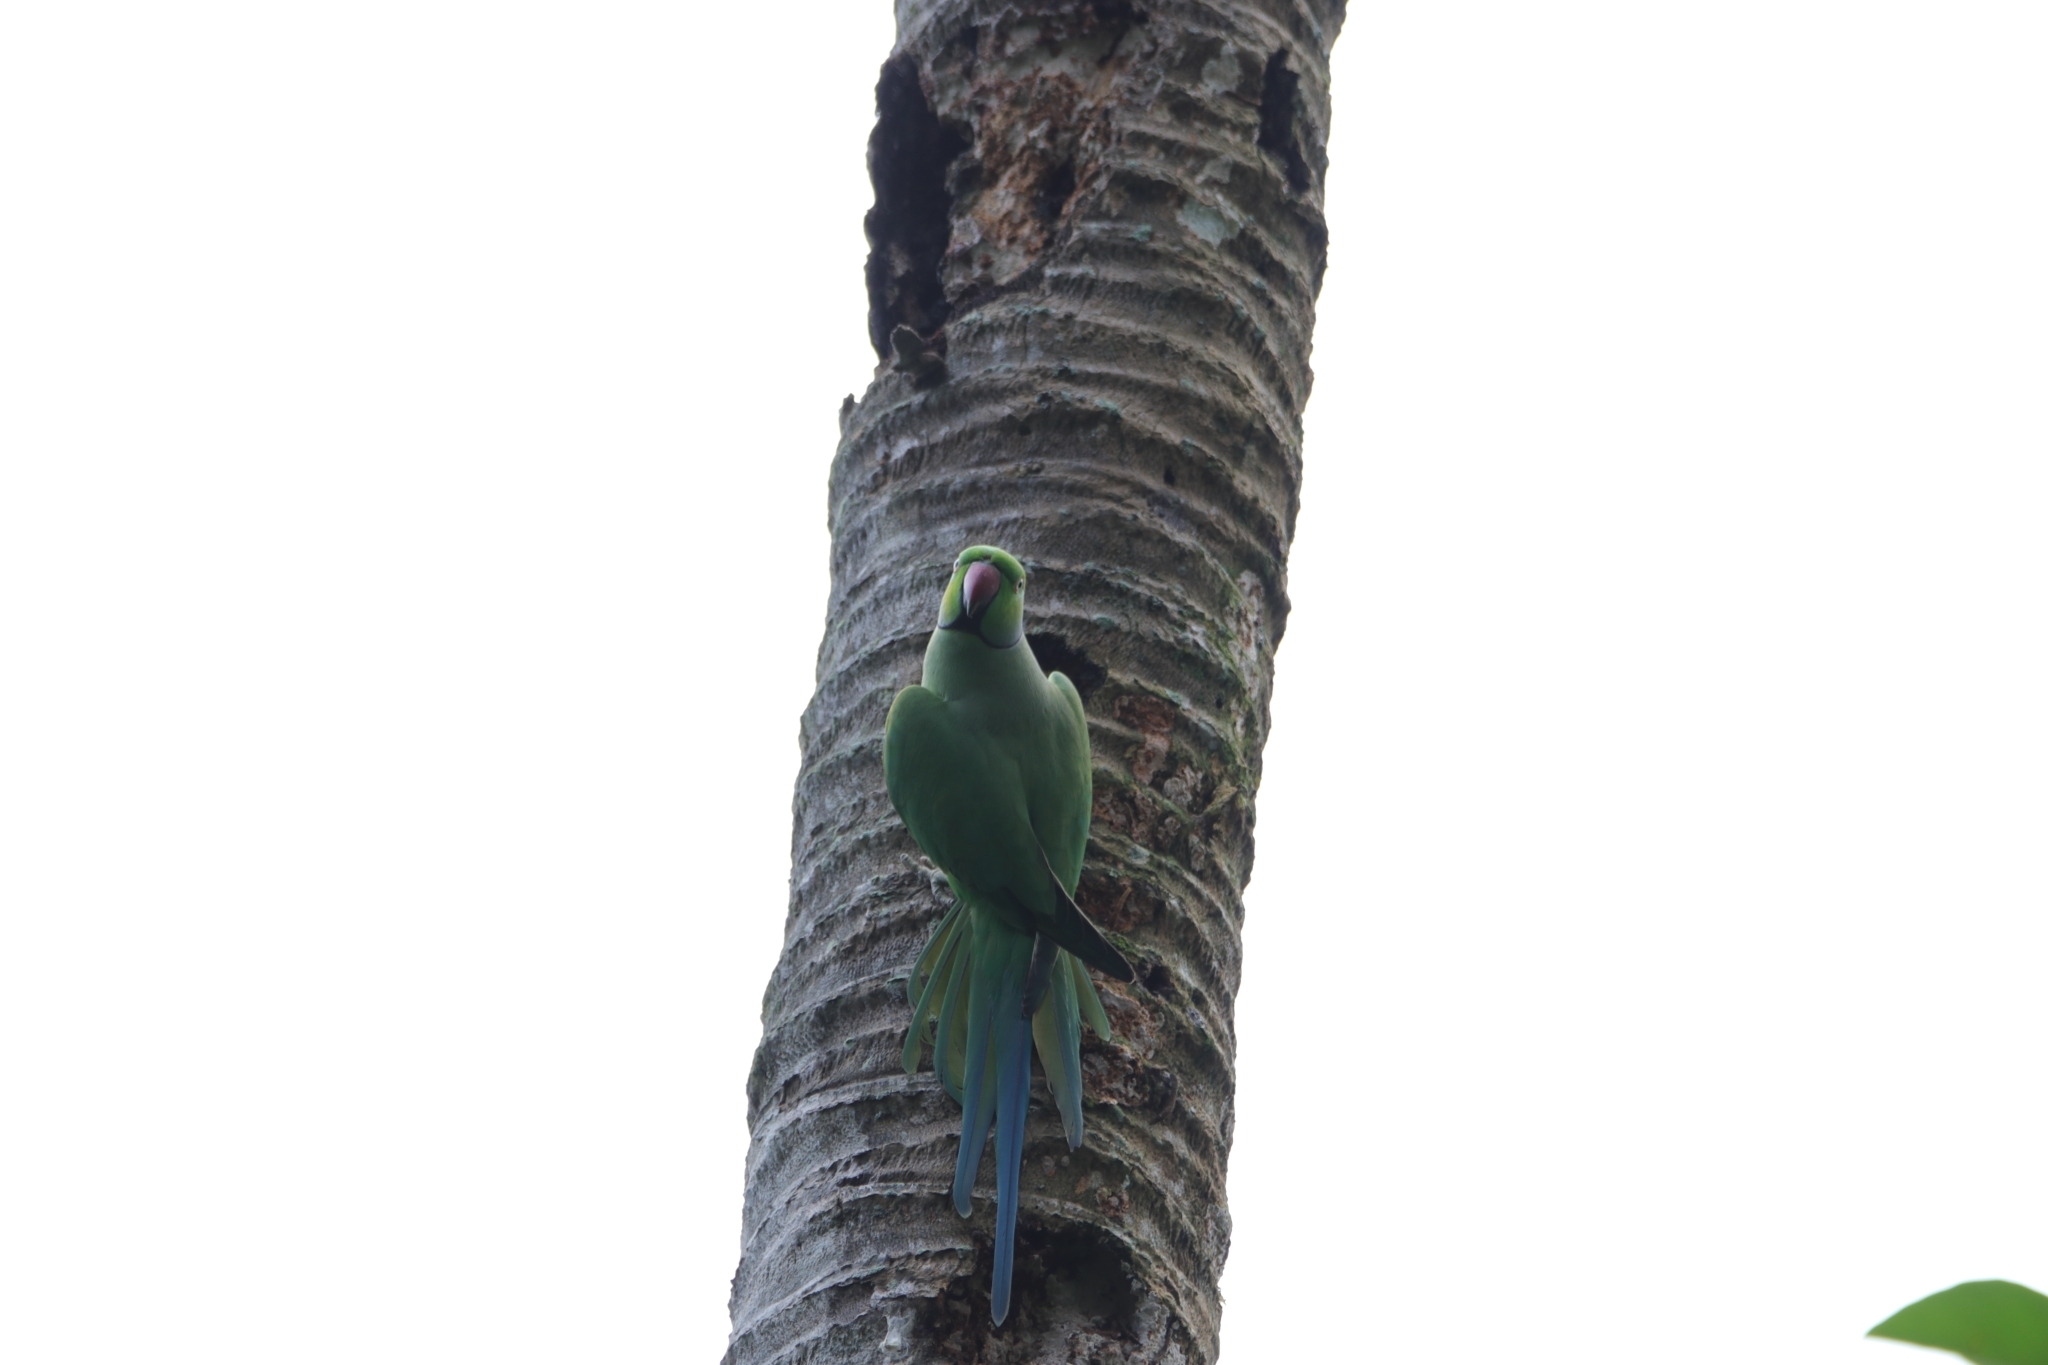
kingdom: Animalia
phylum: Chordata
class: Aves
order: Psittaciformes
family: Psittacidae
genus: Psittacula
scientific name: Psittacula krameri
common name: Rose-ringed parakeet
